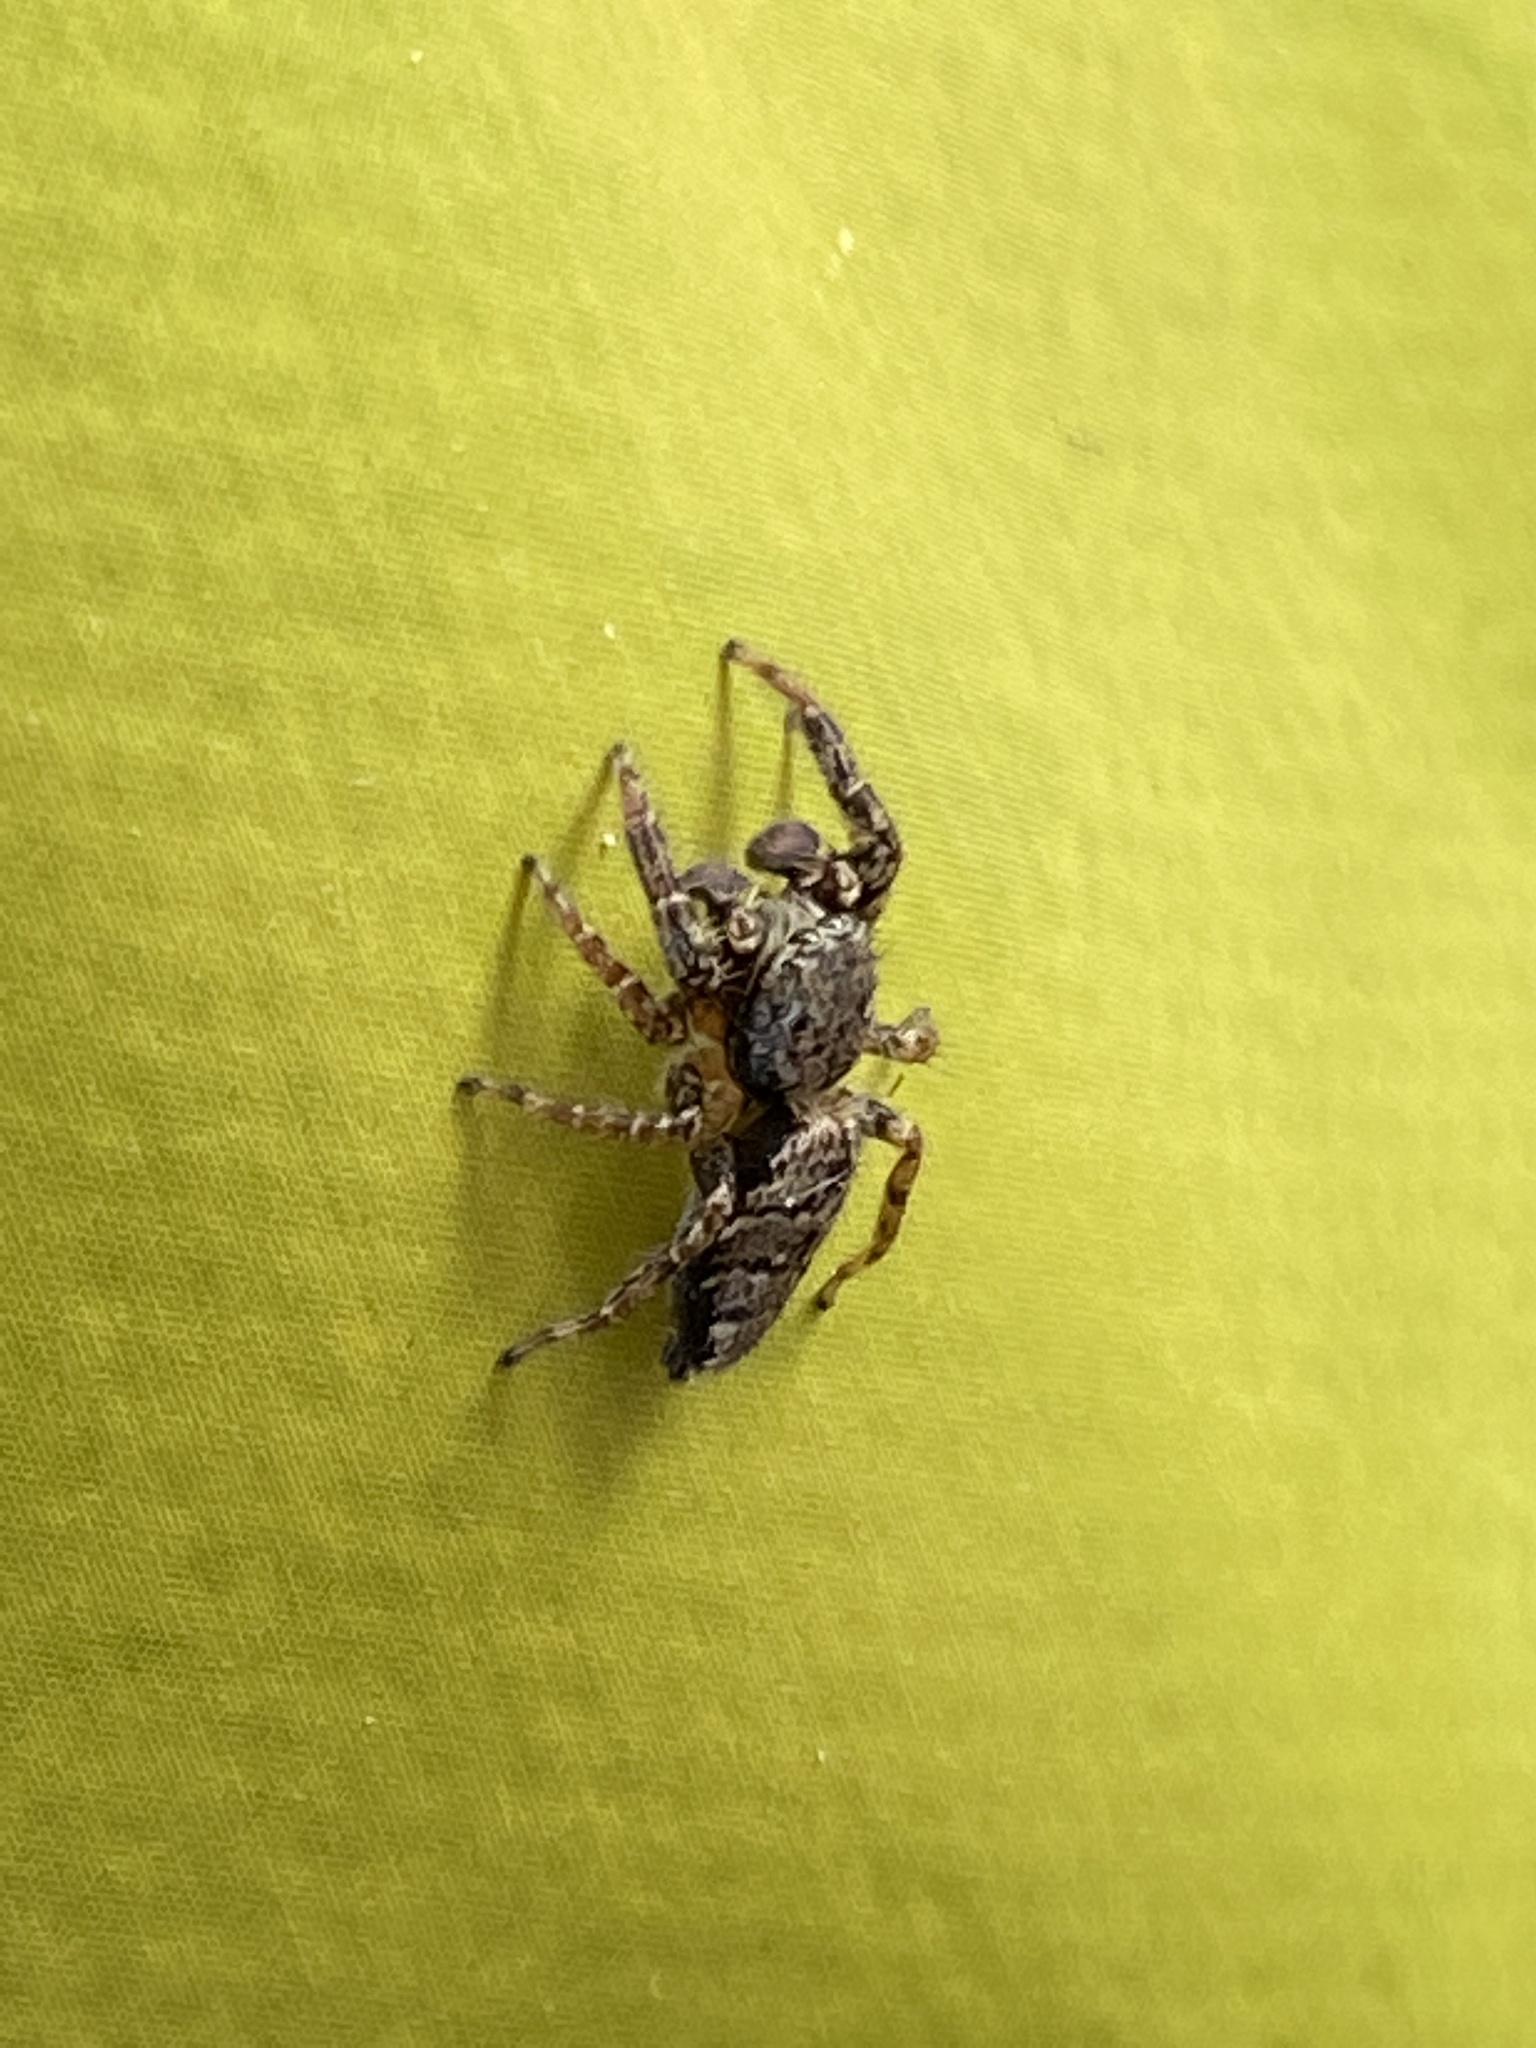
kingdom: Animalia
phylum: Arthropoda
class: Arachnida
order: Araneae
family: Salticidae
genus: Marpissa
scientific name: Marpissa muscosa
